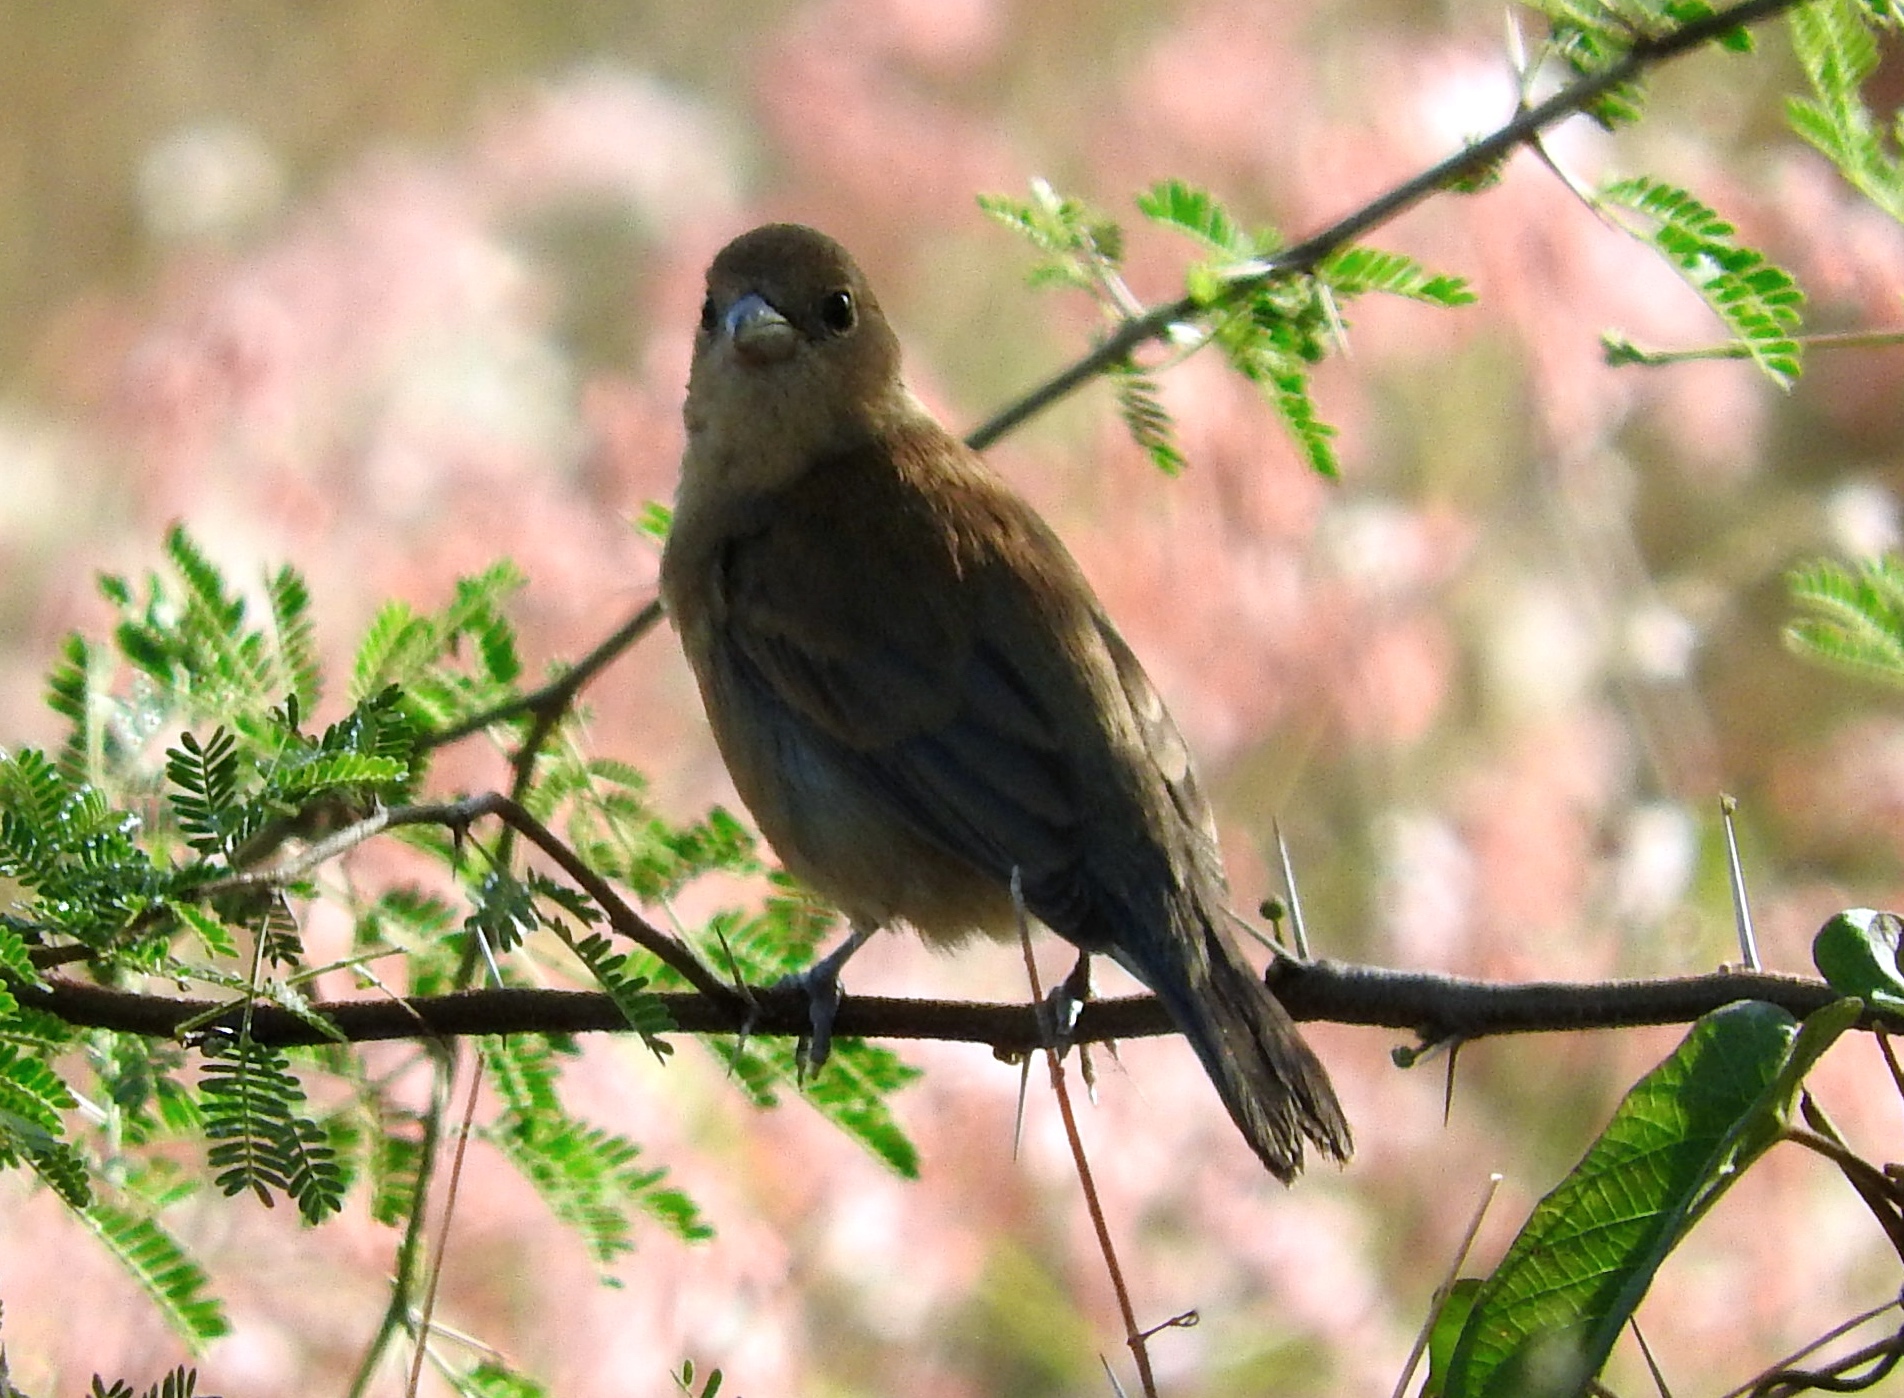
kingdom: Animalia
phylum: Chordata
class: Aves
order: Passeriformes
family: Thraupidae
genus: Volatinia
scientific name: Volatinia jacarina
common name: Blue-black grassquit
